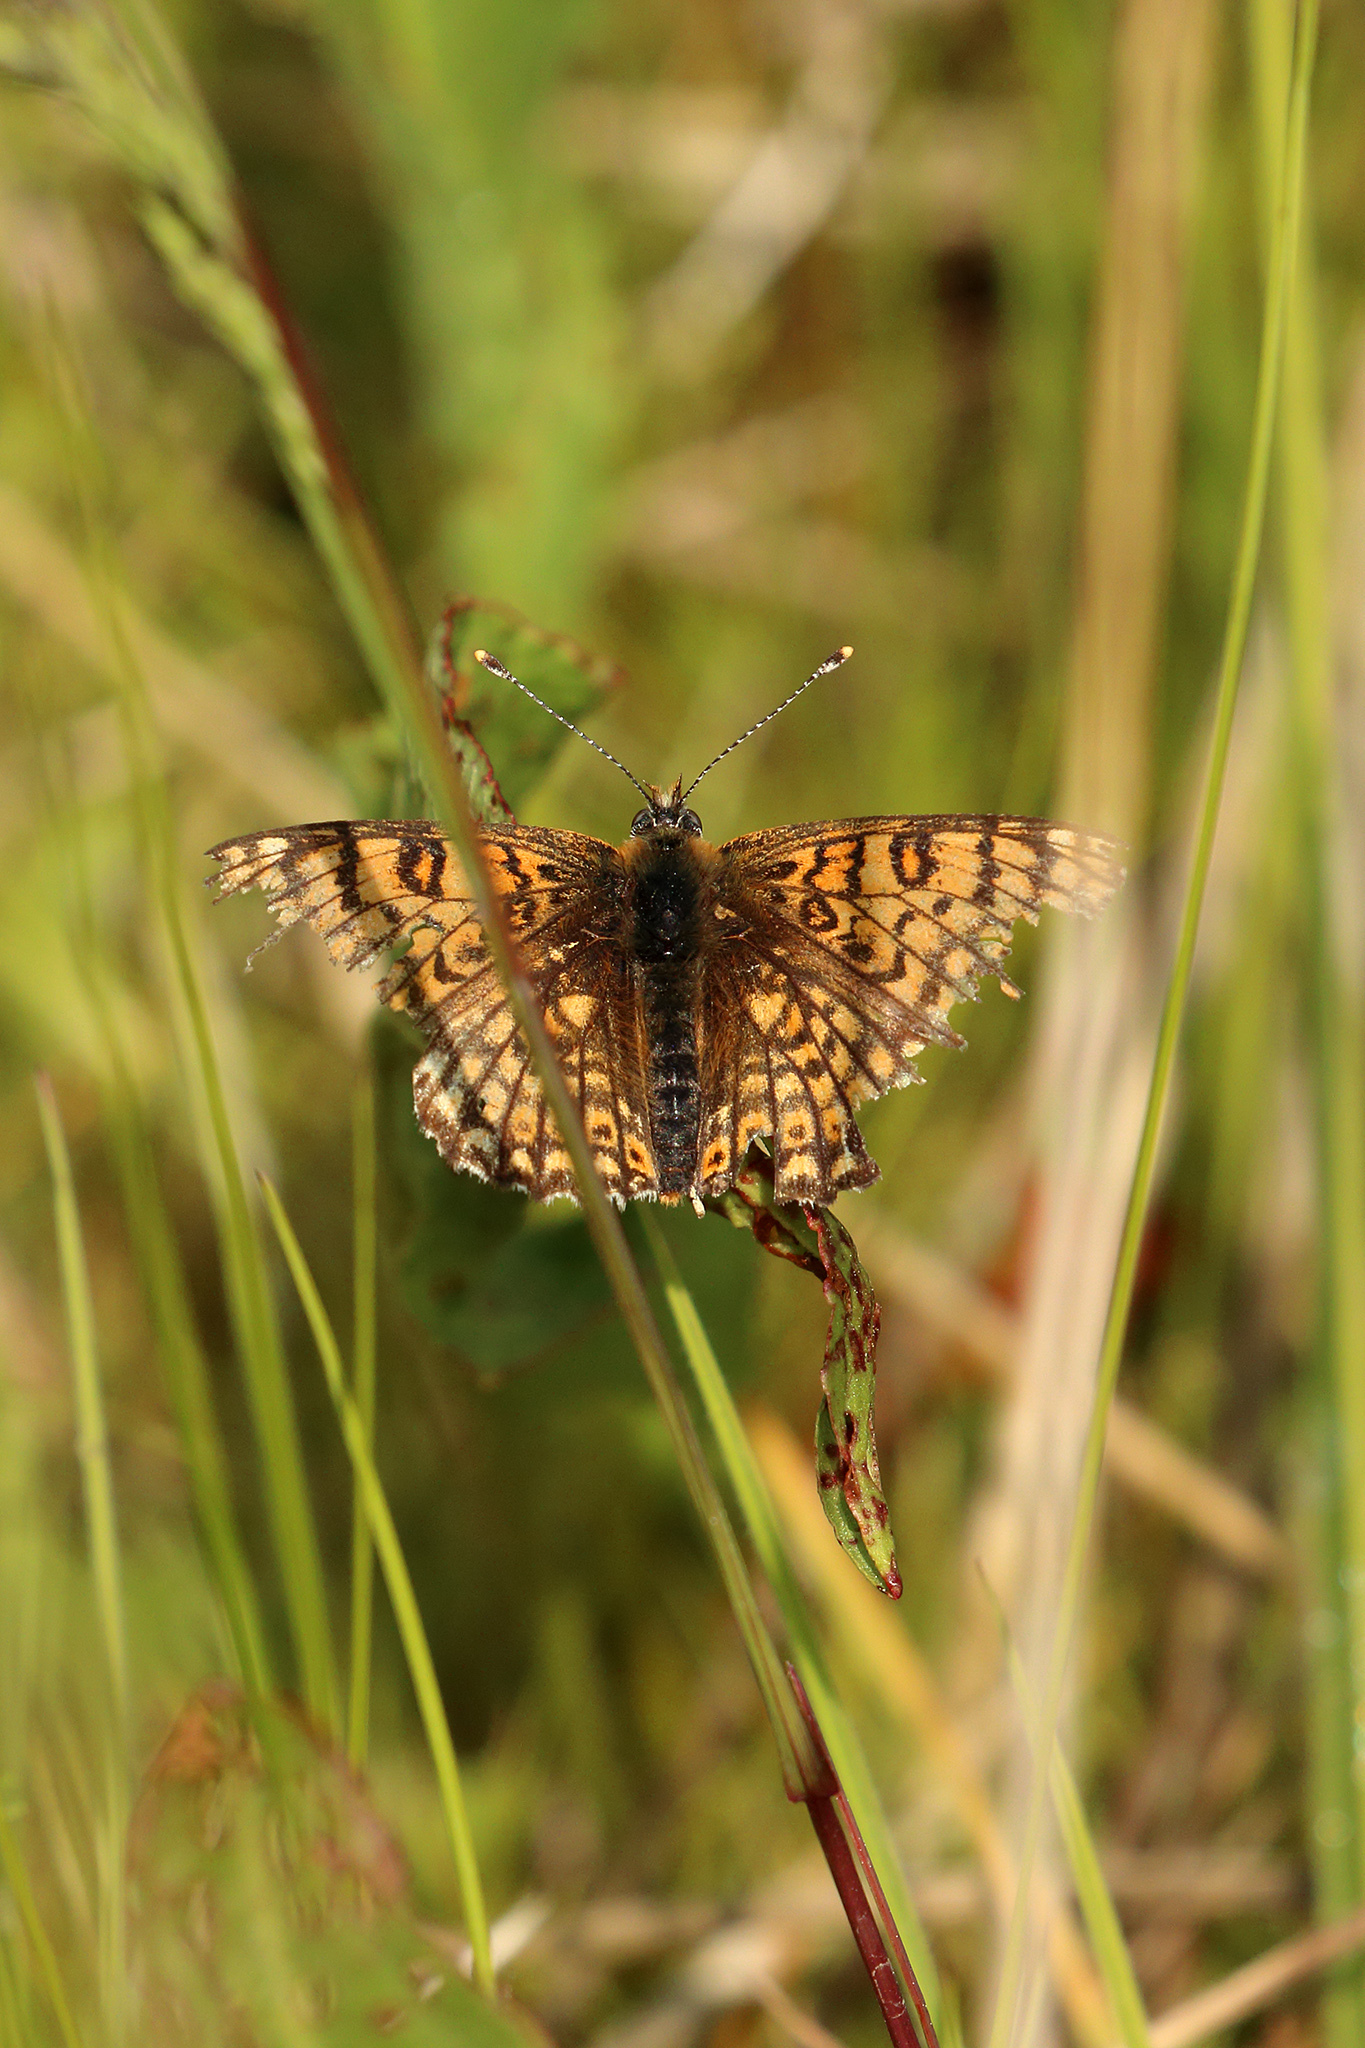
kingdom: Animalia
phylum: Arthropoda
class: Insecta
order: Lepidoptera
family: Nymphalidae
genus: Melitaea
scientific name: Melitaea cinxia
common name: Glanville fritillary
